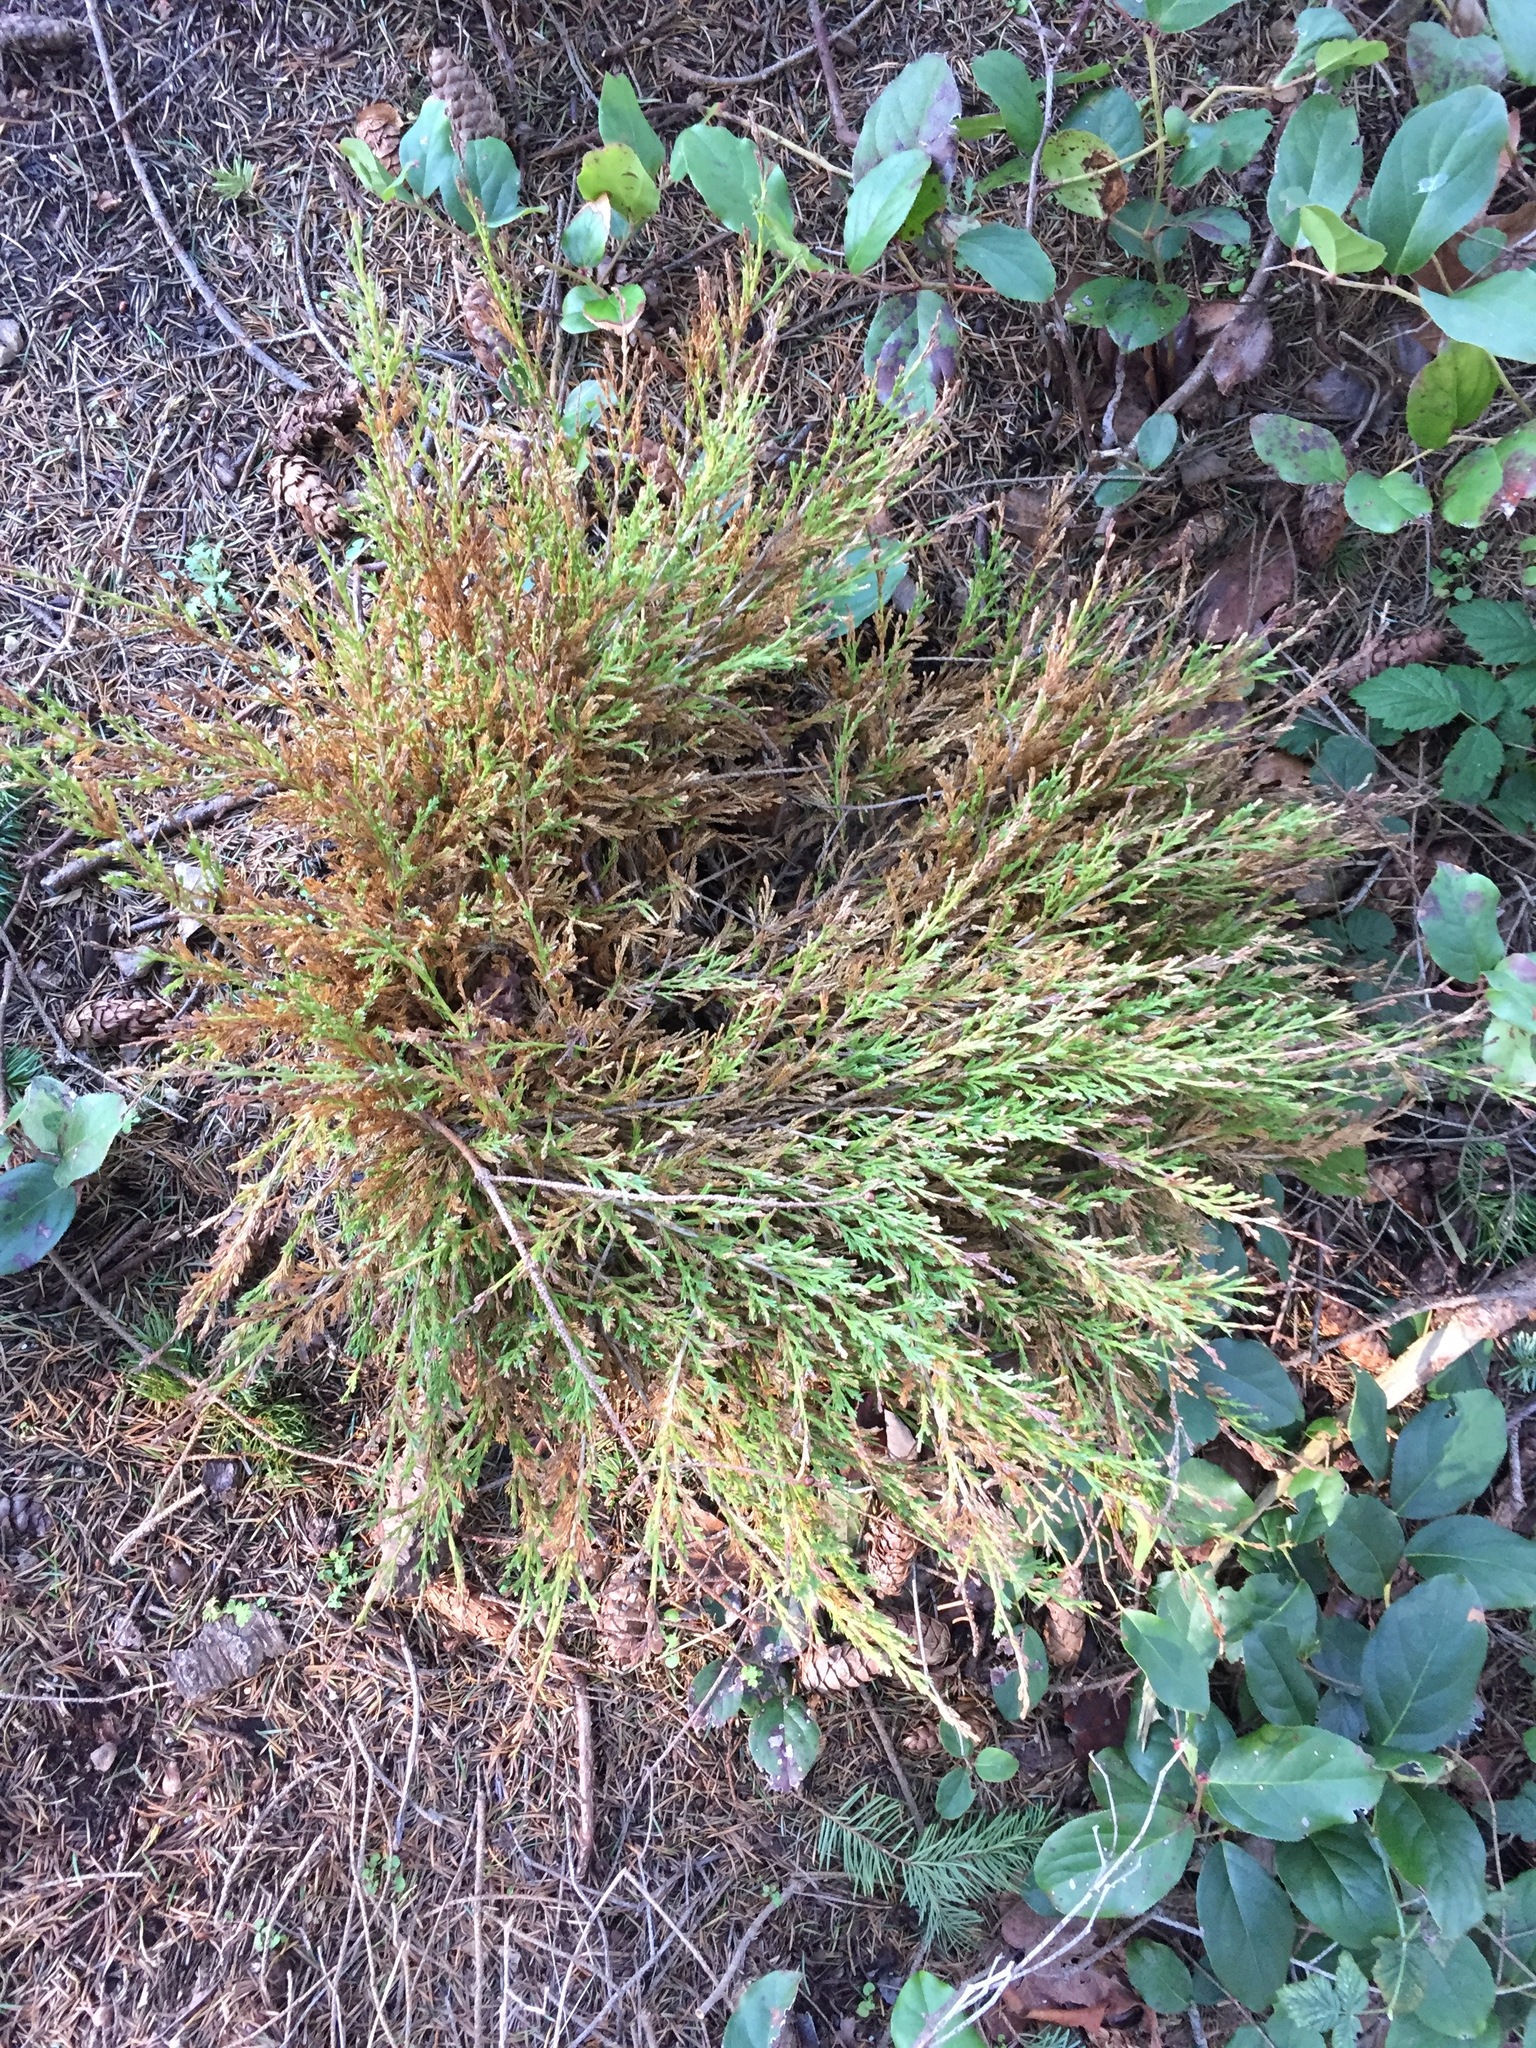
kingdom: Plantae
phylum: Tracheophyta
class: Pinopsida
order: Pinales
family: Cupressaceae
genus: Juniperus
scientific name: Juniperus scopulorum
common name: Rocky mountain juniper
